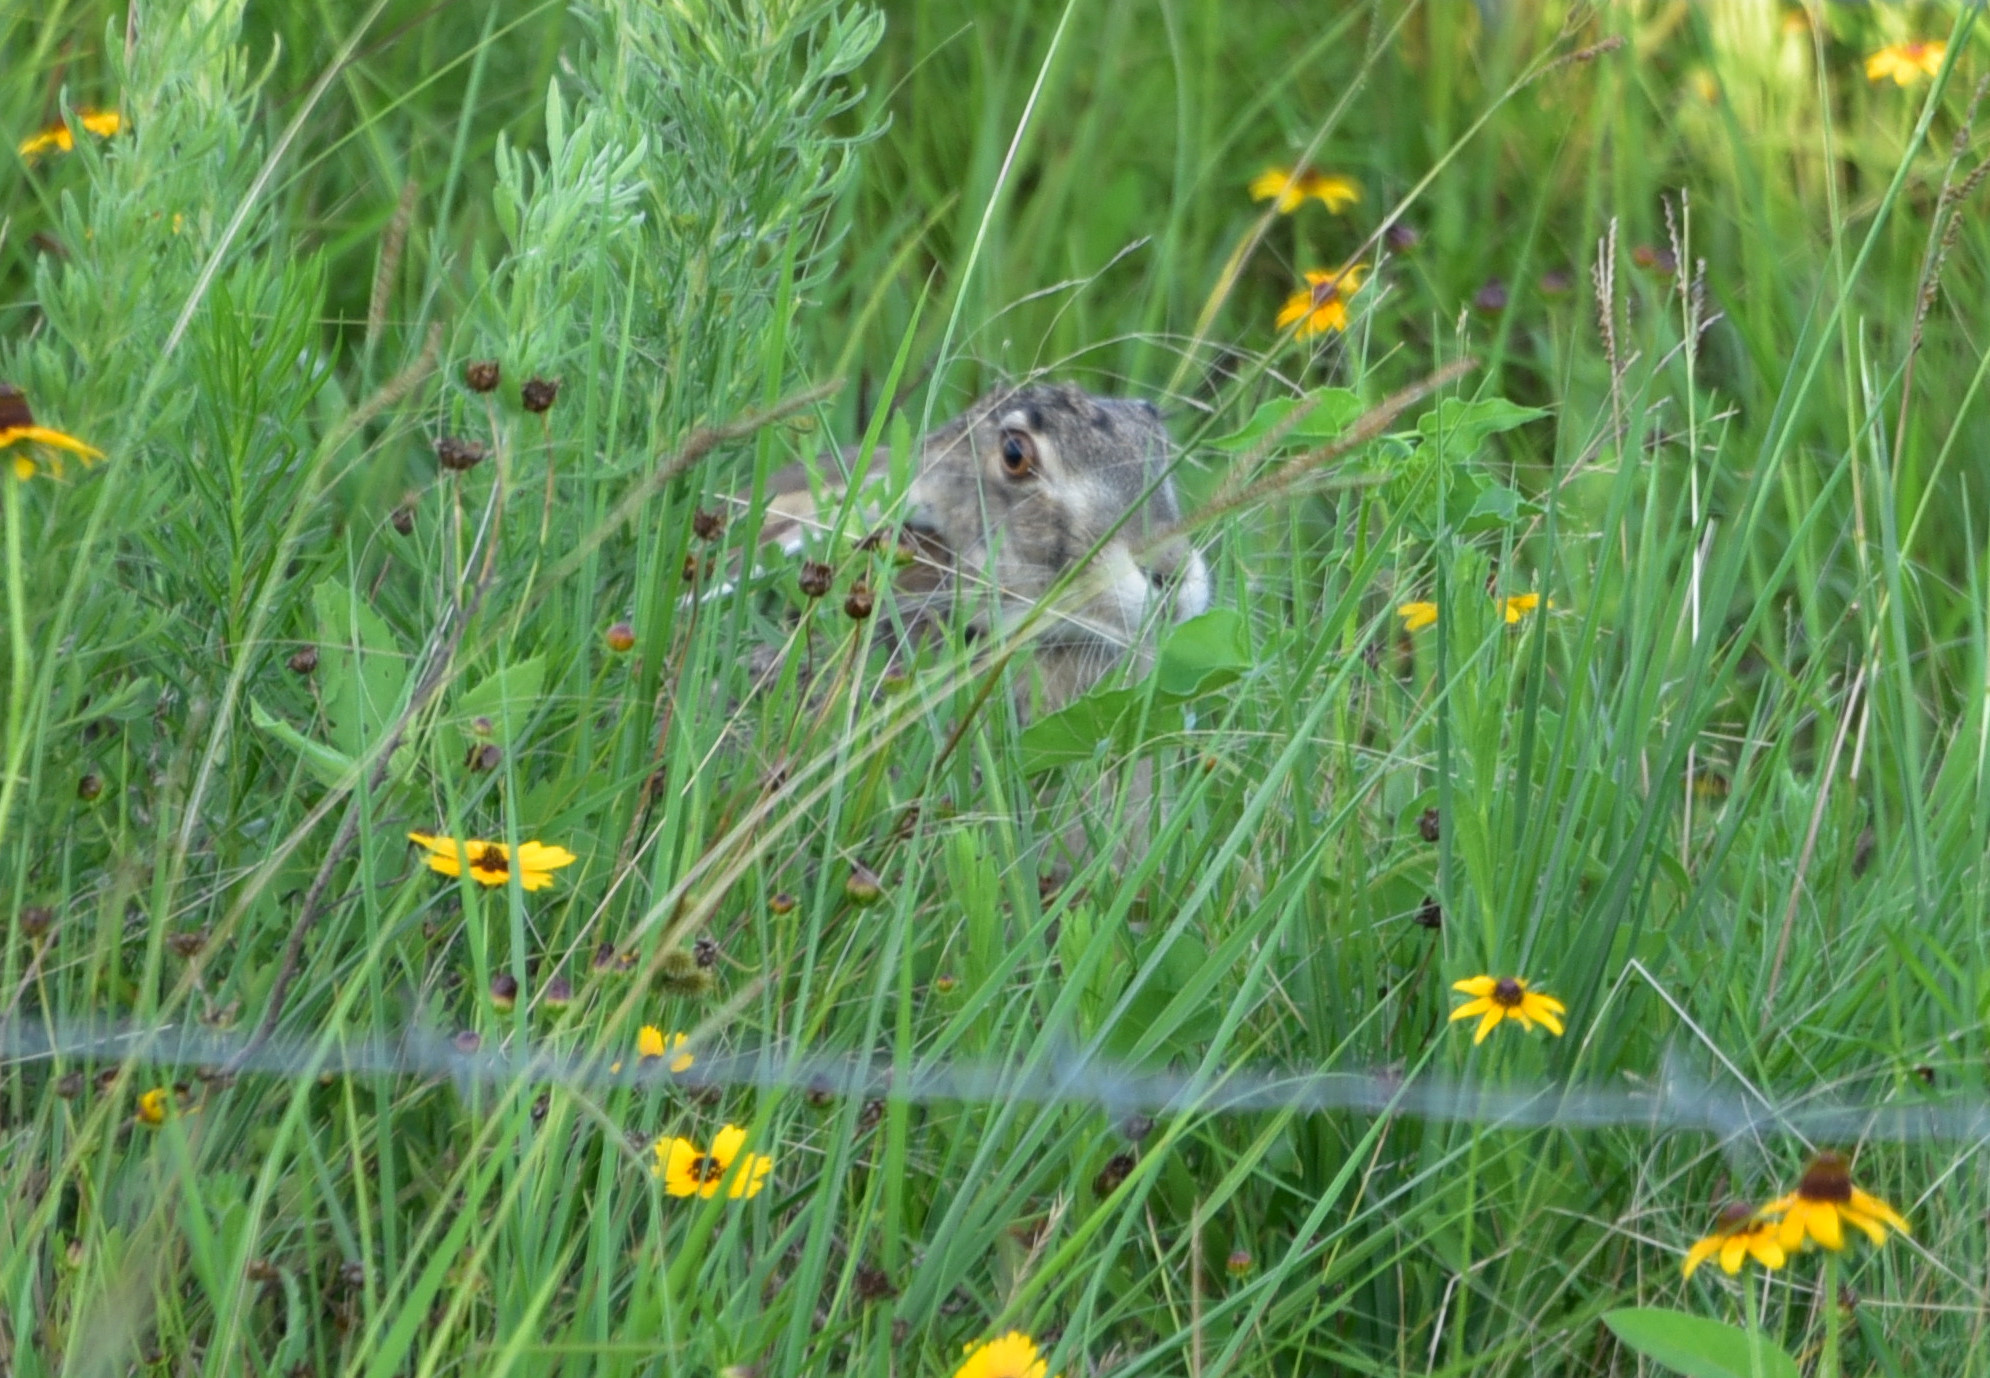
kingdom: Animalia
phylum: Chordata
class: Mammalia
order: Lagomorpha
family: Leporidae
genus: Lepus
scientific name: Lepus californicus
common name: Black-tailed jackrabbit
